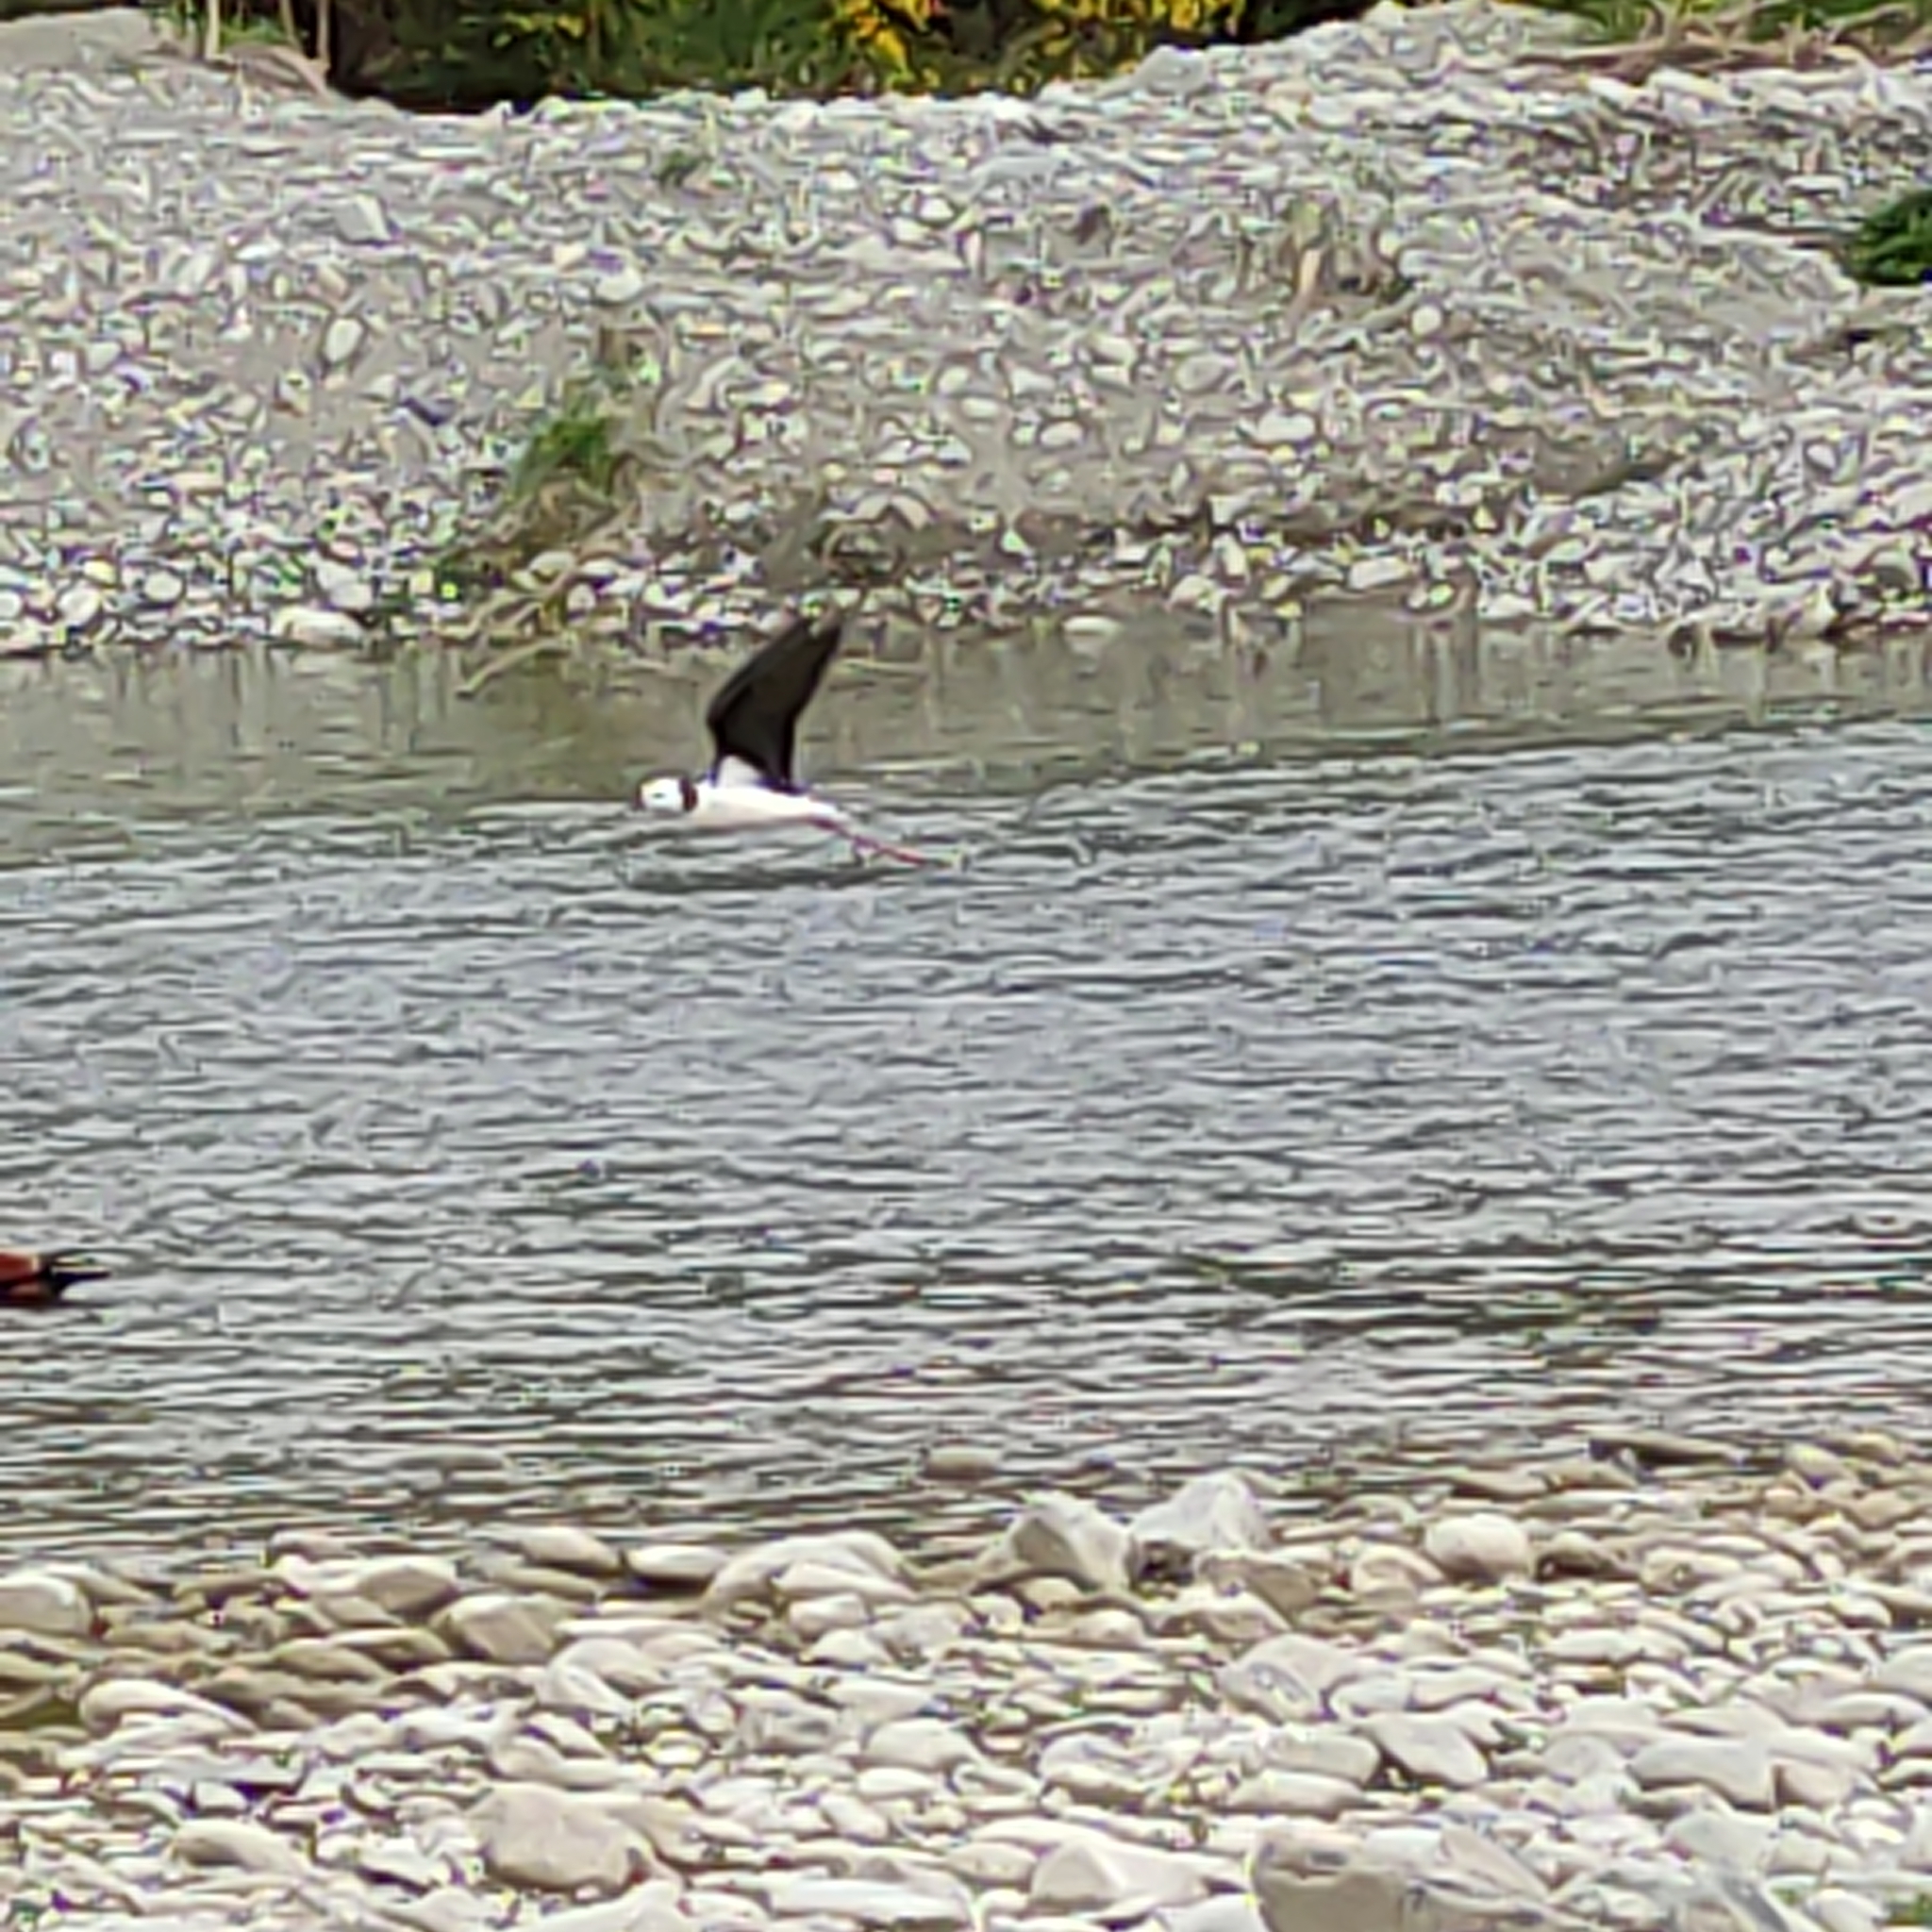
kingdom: Animalia
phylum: Chordata
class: Aves
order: Charadriiformes
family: Recurvirostridae
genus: Himantopus
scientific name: Himantopus leucocephalus
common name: White-headed stilt
